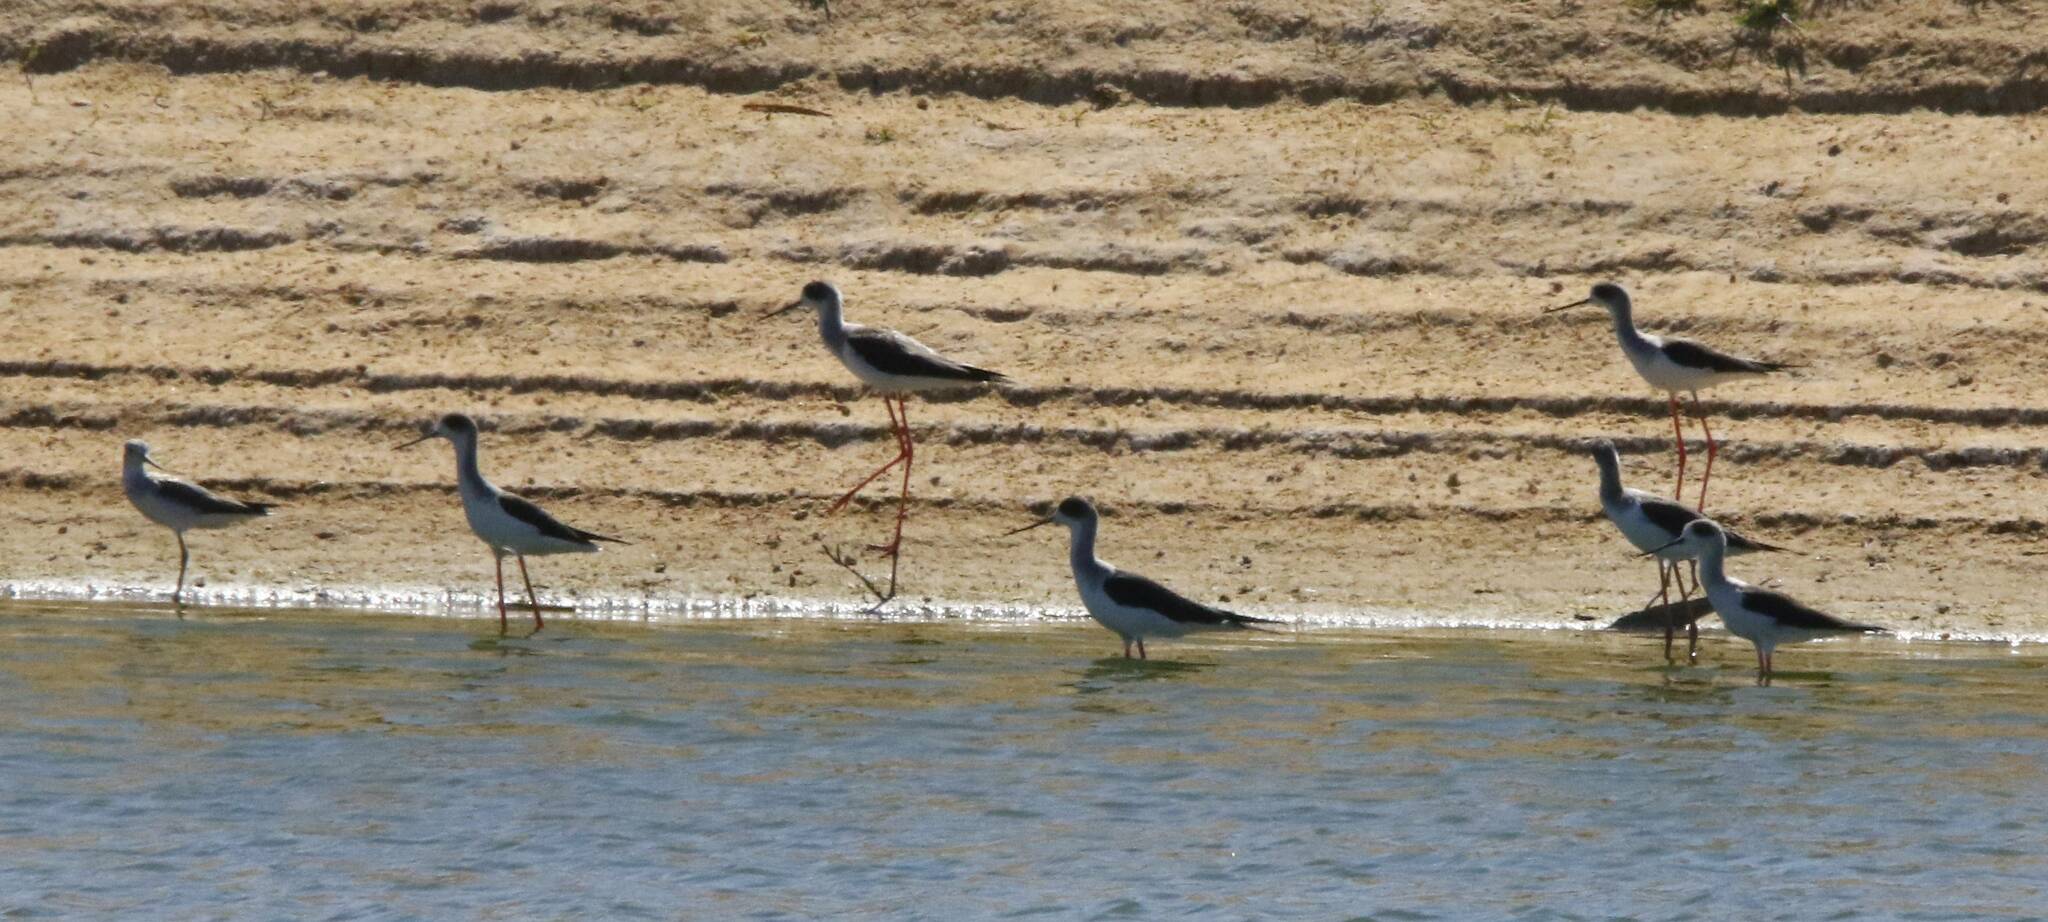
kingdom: Animalia
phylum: Chordata
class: Aves
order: Charadriiformes
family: Recurvirostridae
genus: Himantopus
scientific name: Himantopus himantopus
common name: Black-winged stilt
